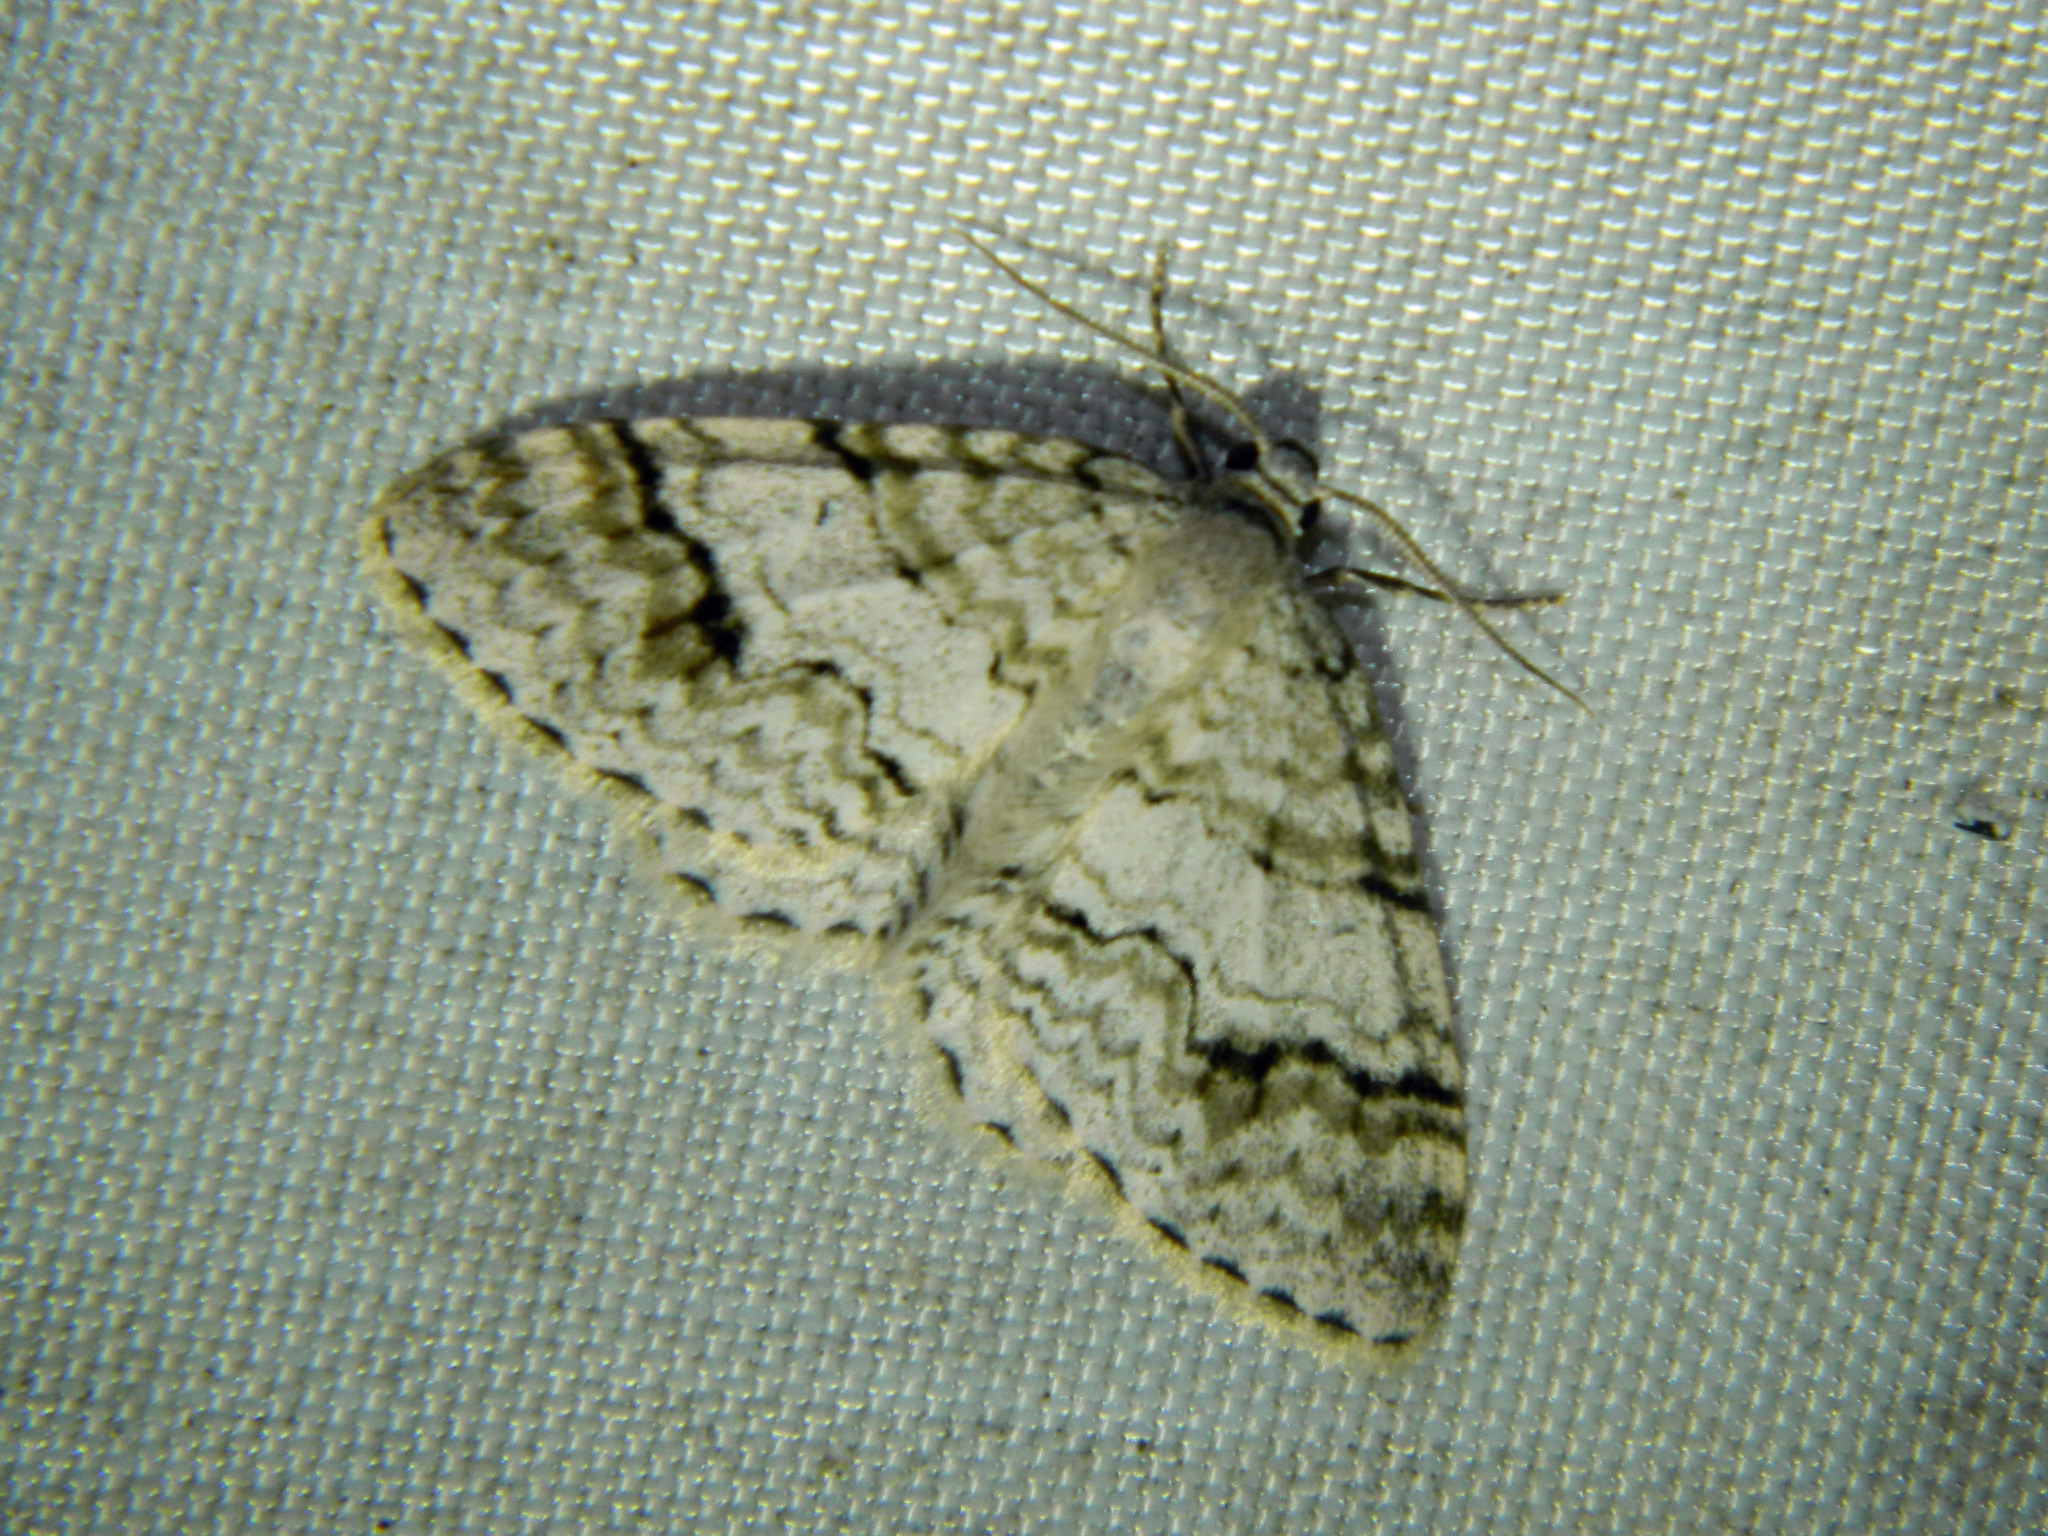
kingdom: Animalia
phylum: Arthropoda
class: Insecta
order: Lepidoptera
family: Geometridae
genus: Venusia
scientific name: Venusia cambrica
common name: Welsh wave
